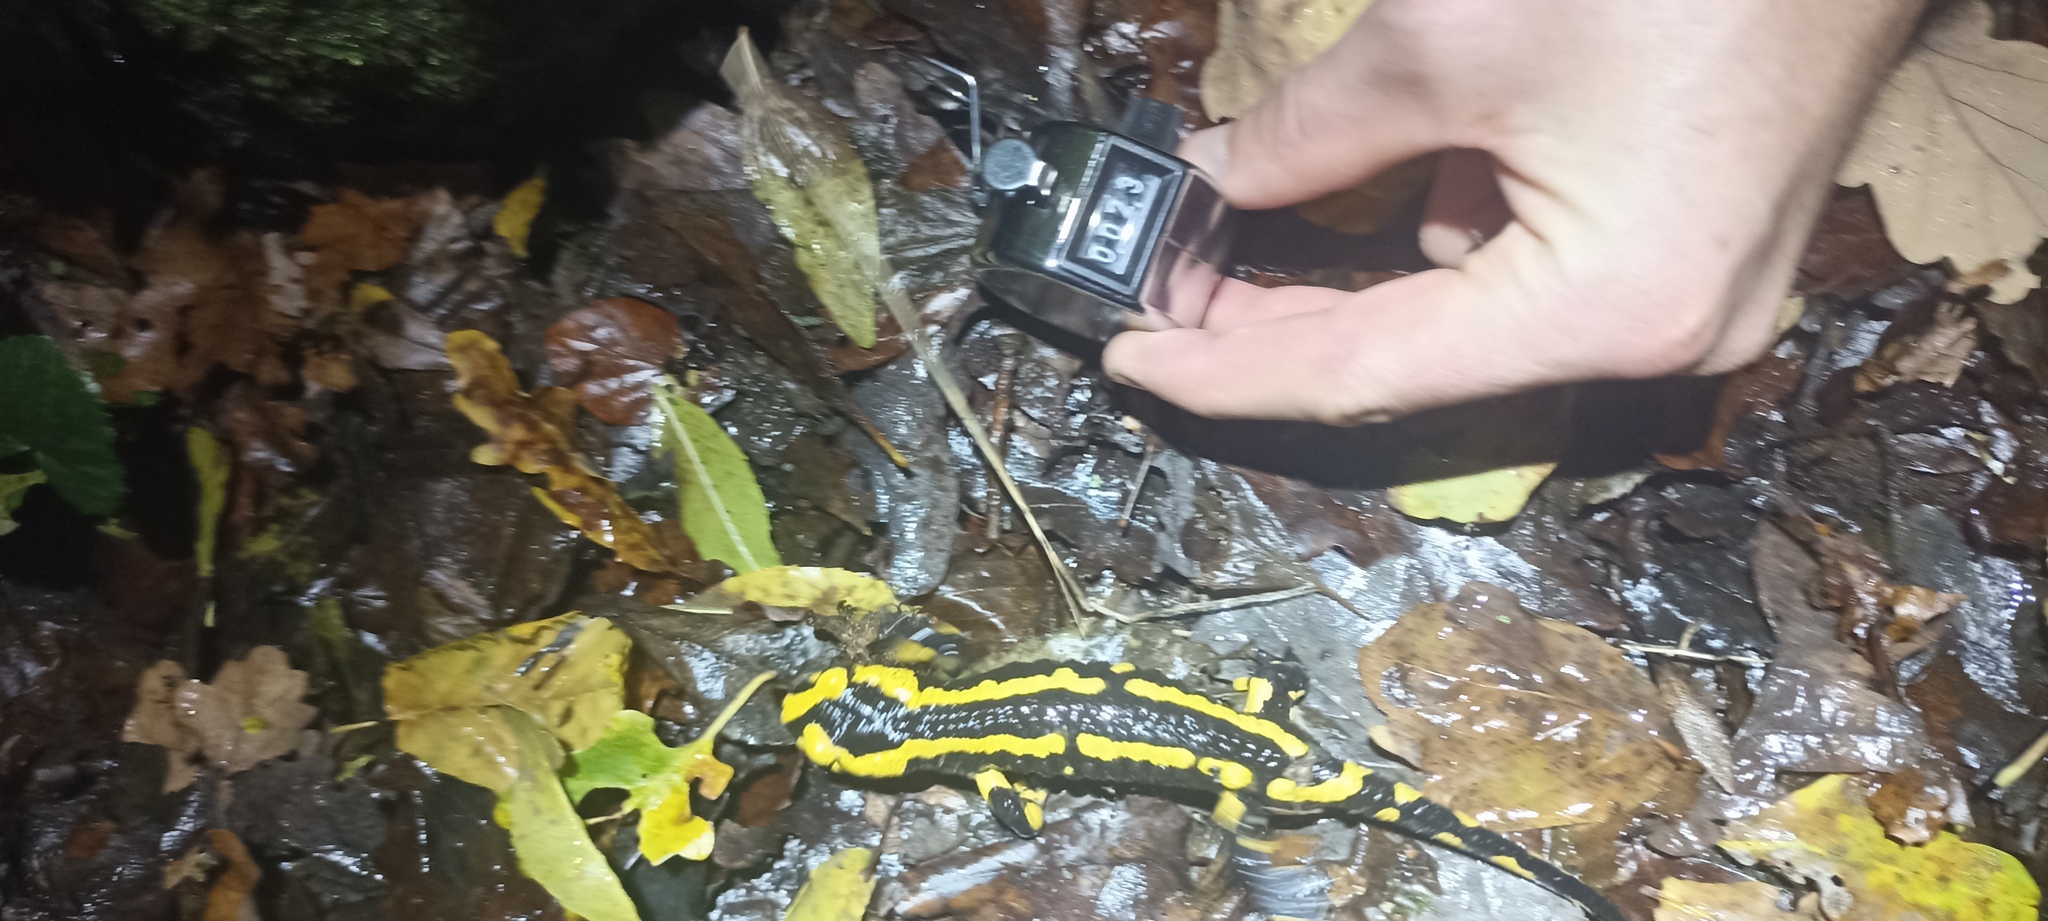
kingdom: Animalia
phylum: Chordata
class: Amphibia
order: Caudata
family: Salamandridae
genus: Salamandra
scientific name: Salamandra salamandra
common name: Fire salamander
